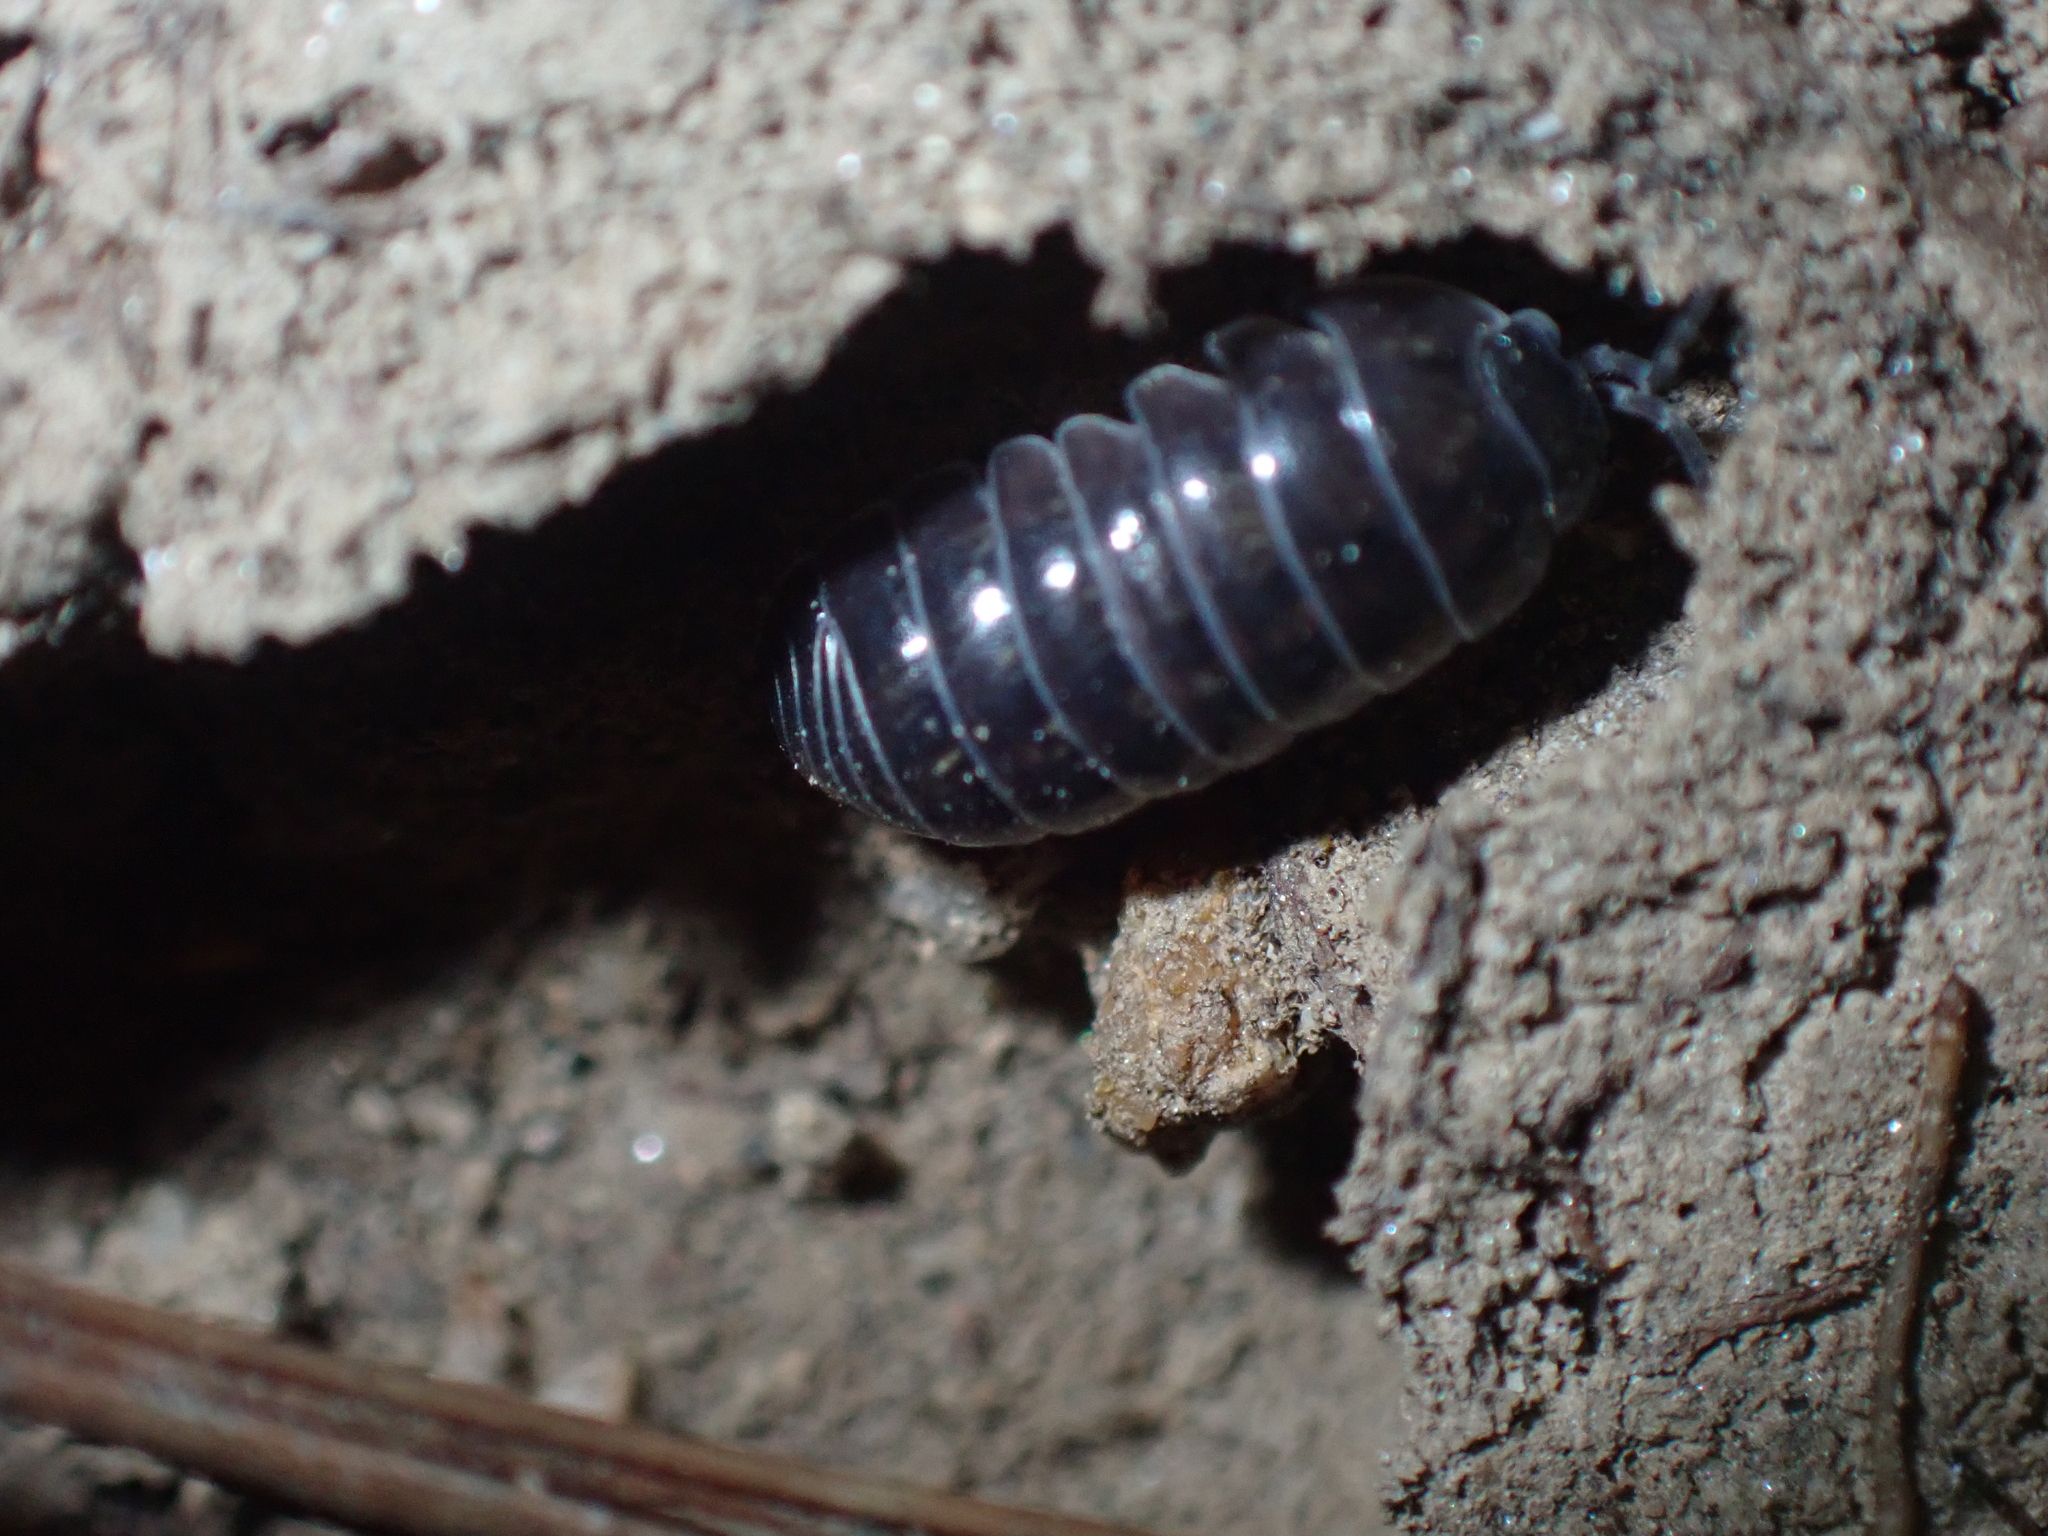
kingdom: Animalia
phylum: Arthropoda
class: Malacostraca
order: Isopoda
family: Armadillidiidae
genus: Armadillidium
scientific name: Armadillidium vulgare
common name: Common pill woodlouse
